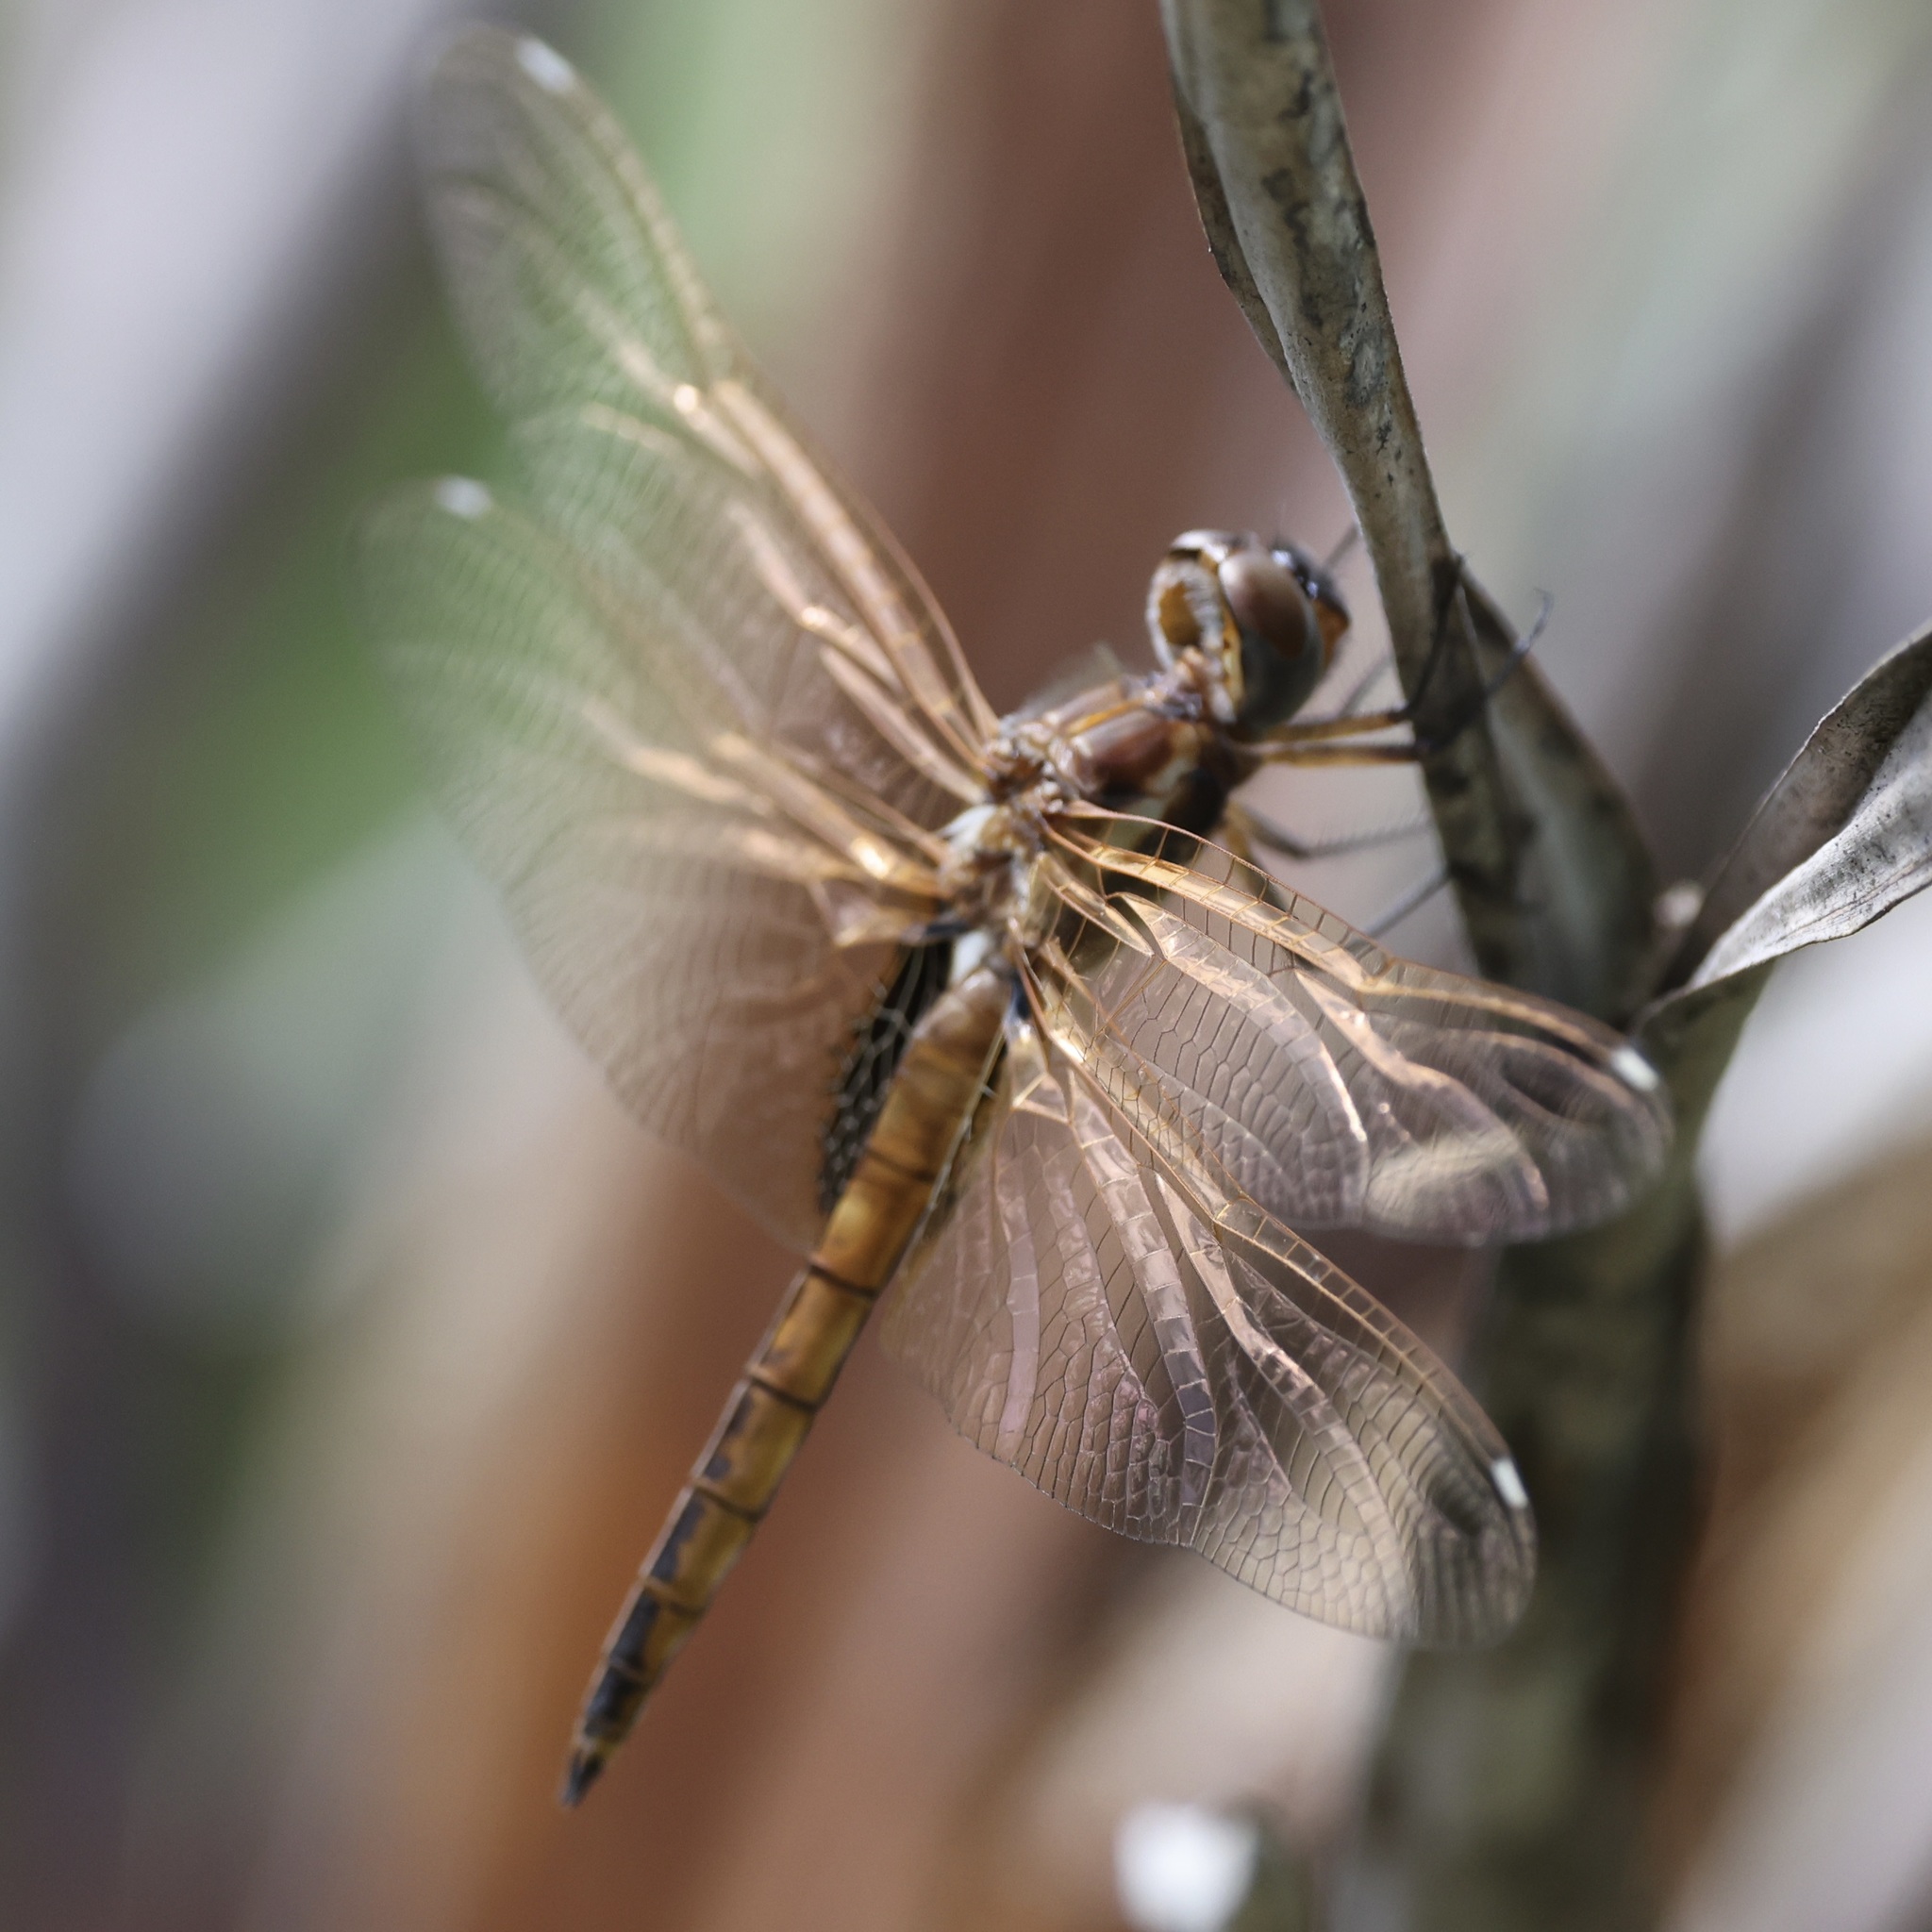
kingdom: Animalia
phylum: Arthropoda
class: Insecta
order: Odonata
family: Libellulidae
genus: Miathyria
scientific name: Miathyria marcella
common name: Hyacinth glider
